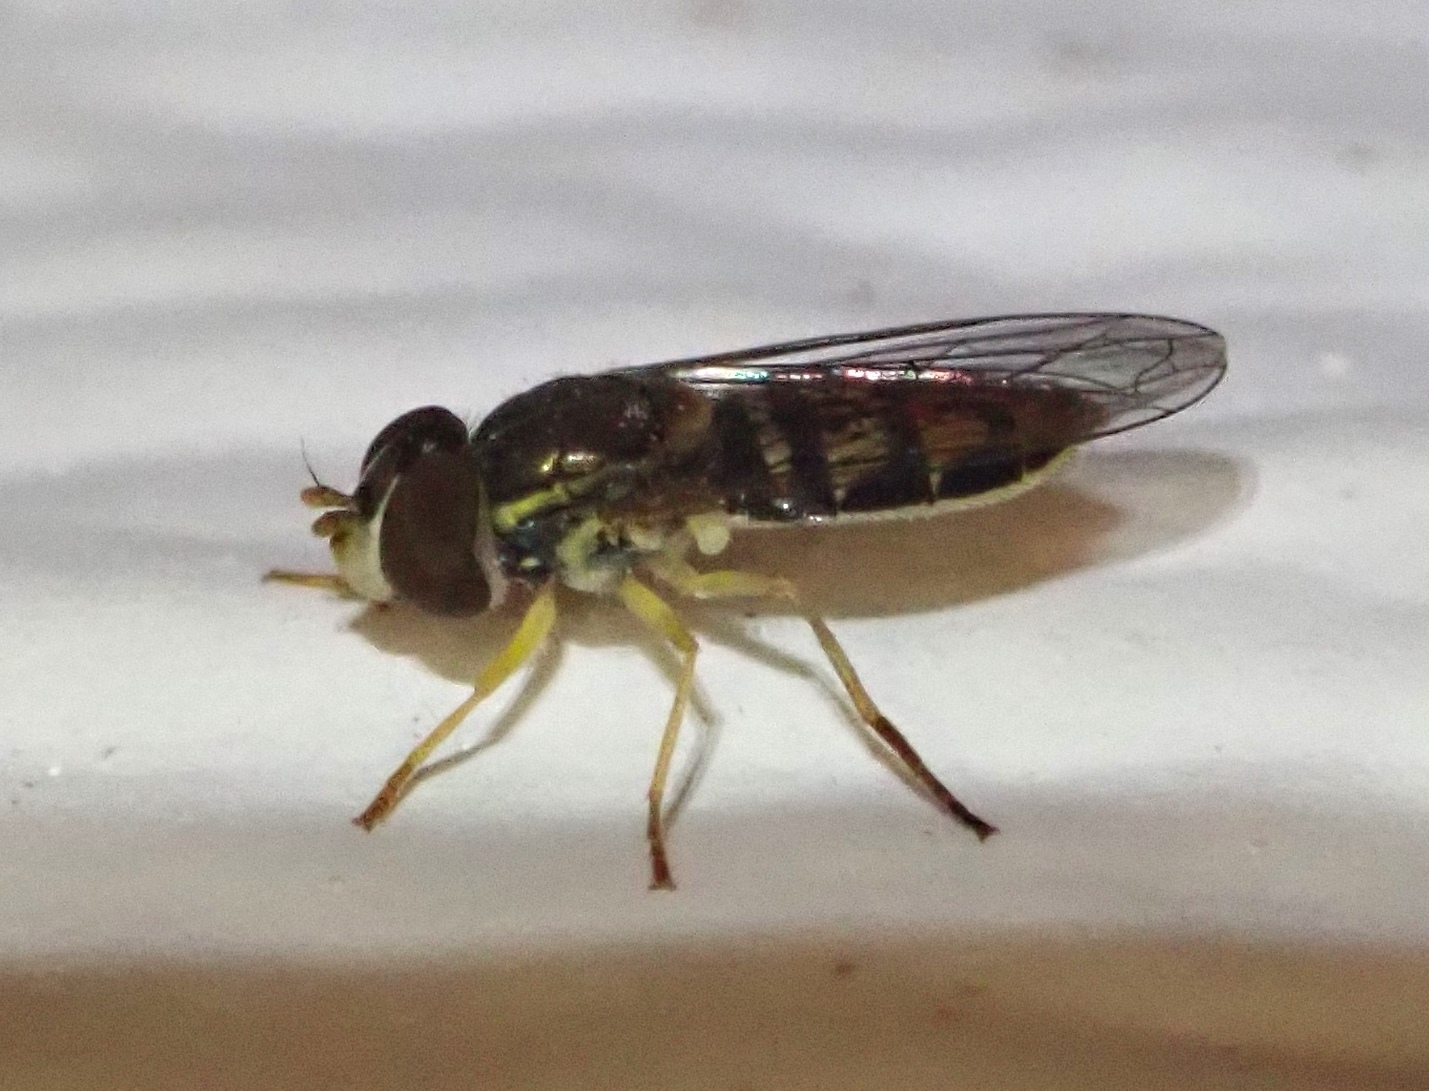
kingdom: Animalia
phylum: Arthropoda
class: Insecta
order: Diptera
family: Syrphidae
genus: Toxomerus
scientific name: Toxomerus marginatus
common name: Syrphid fly
